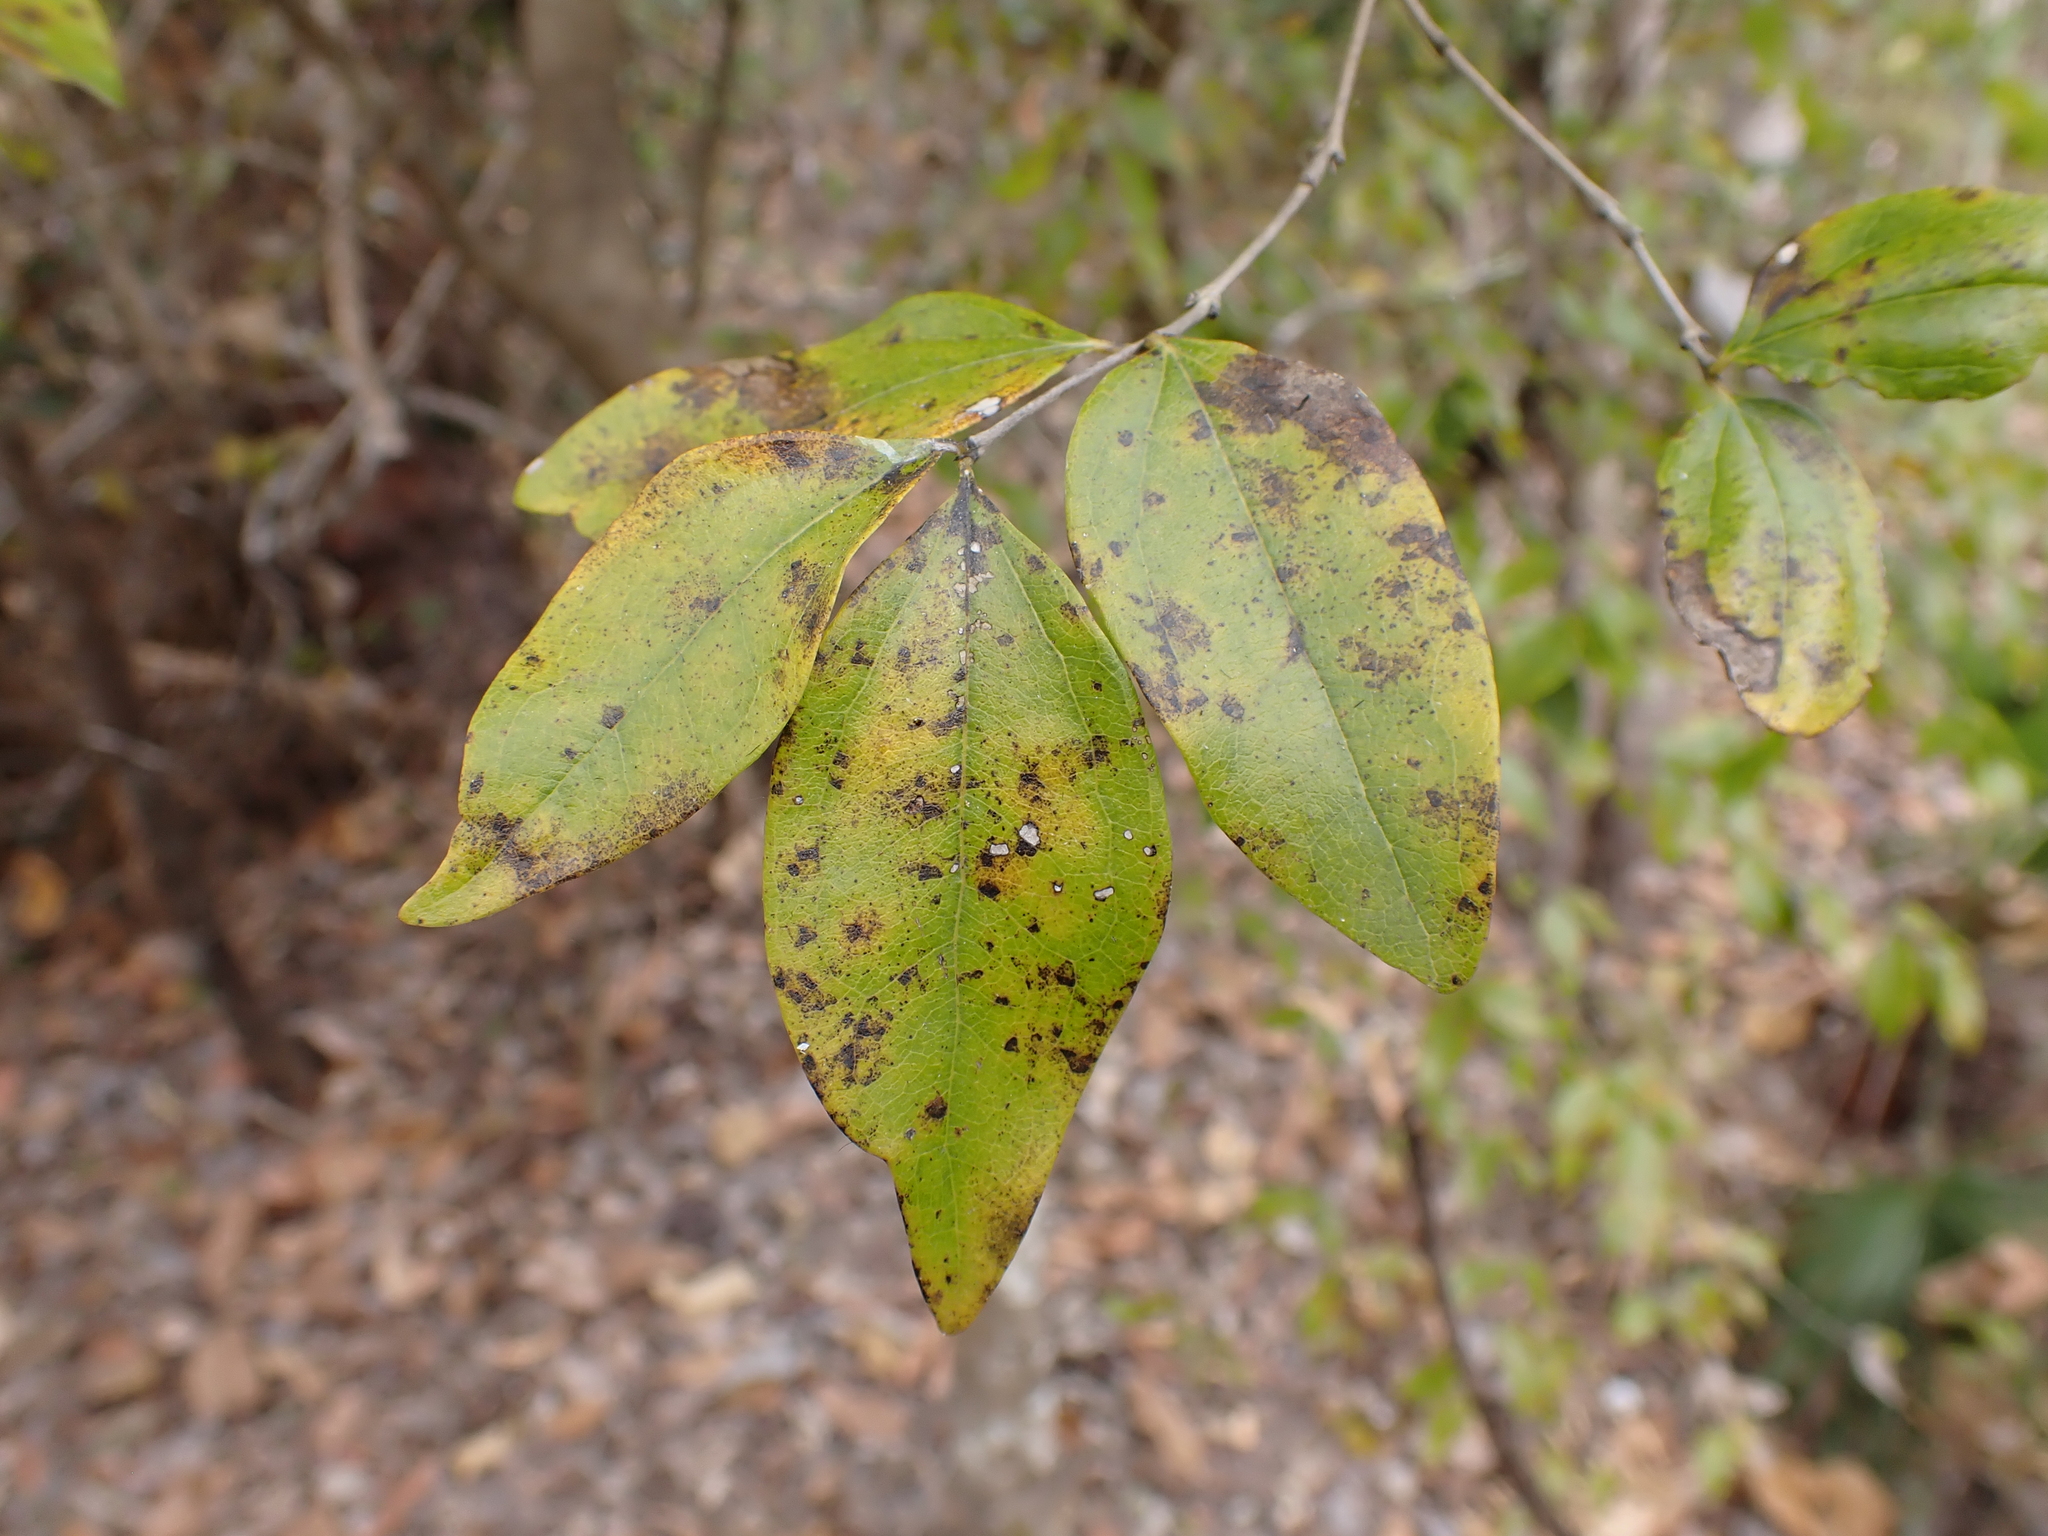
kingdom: Plantae
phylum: Tracheophyta
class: Magnoliopsida
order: Gentianales
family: Loganiaceae
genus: Strychnos
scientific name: Strychnos lucida
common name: Strychninebush
